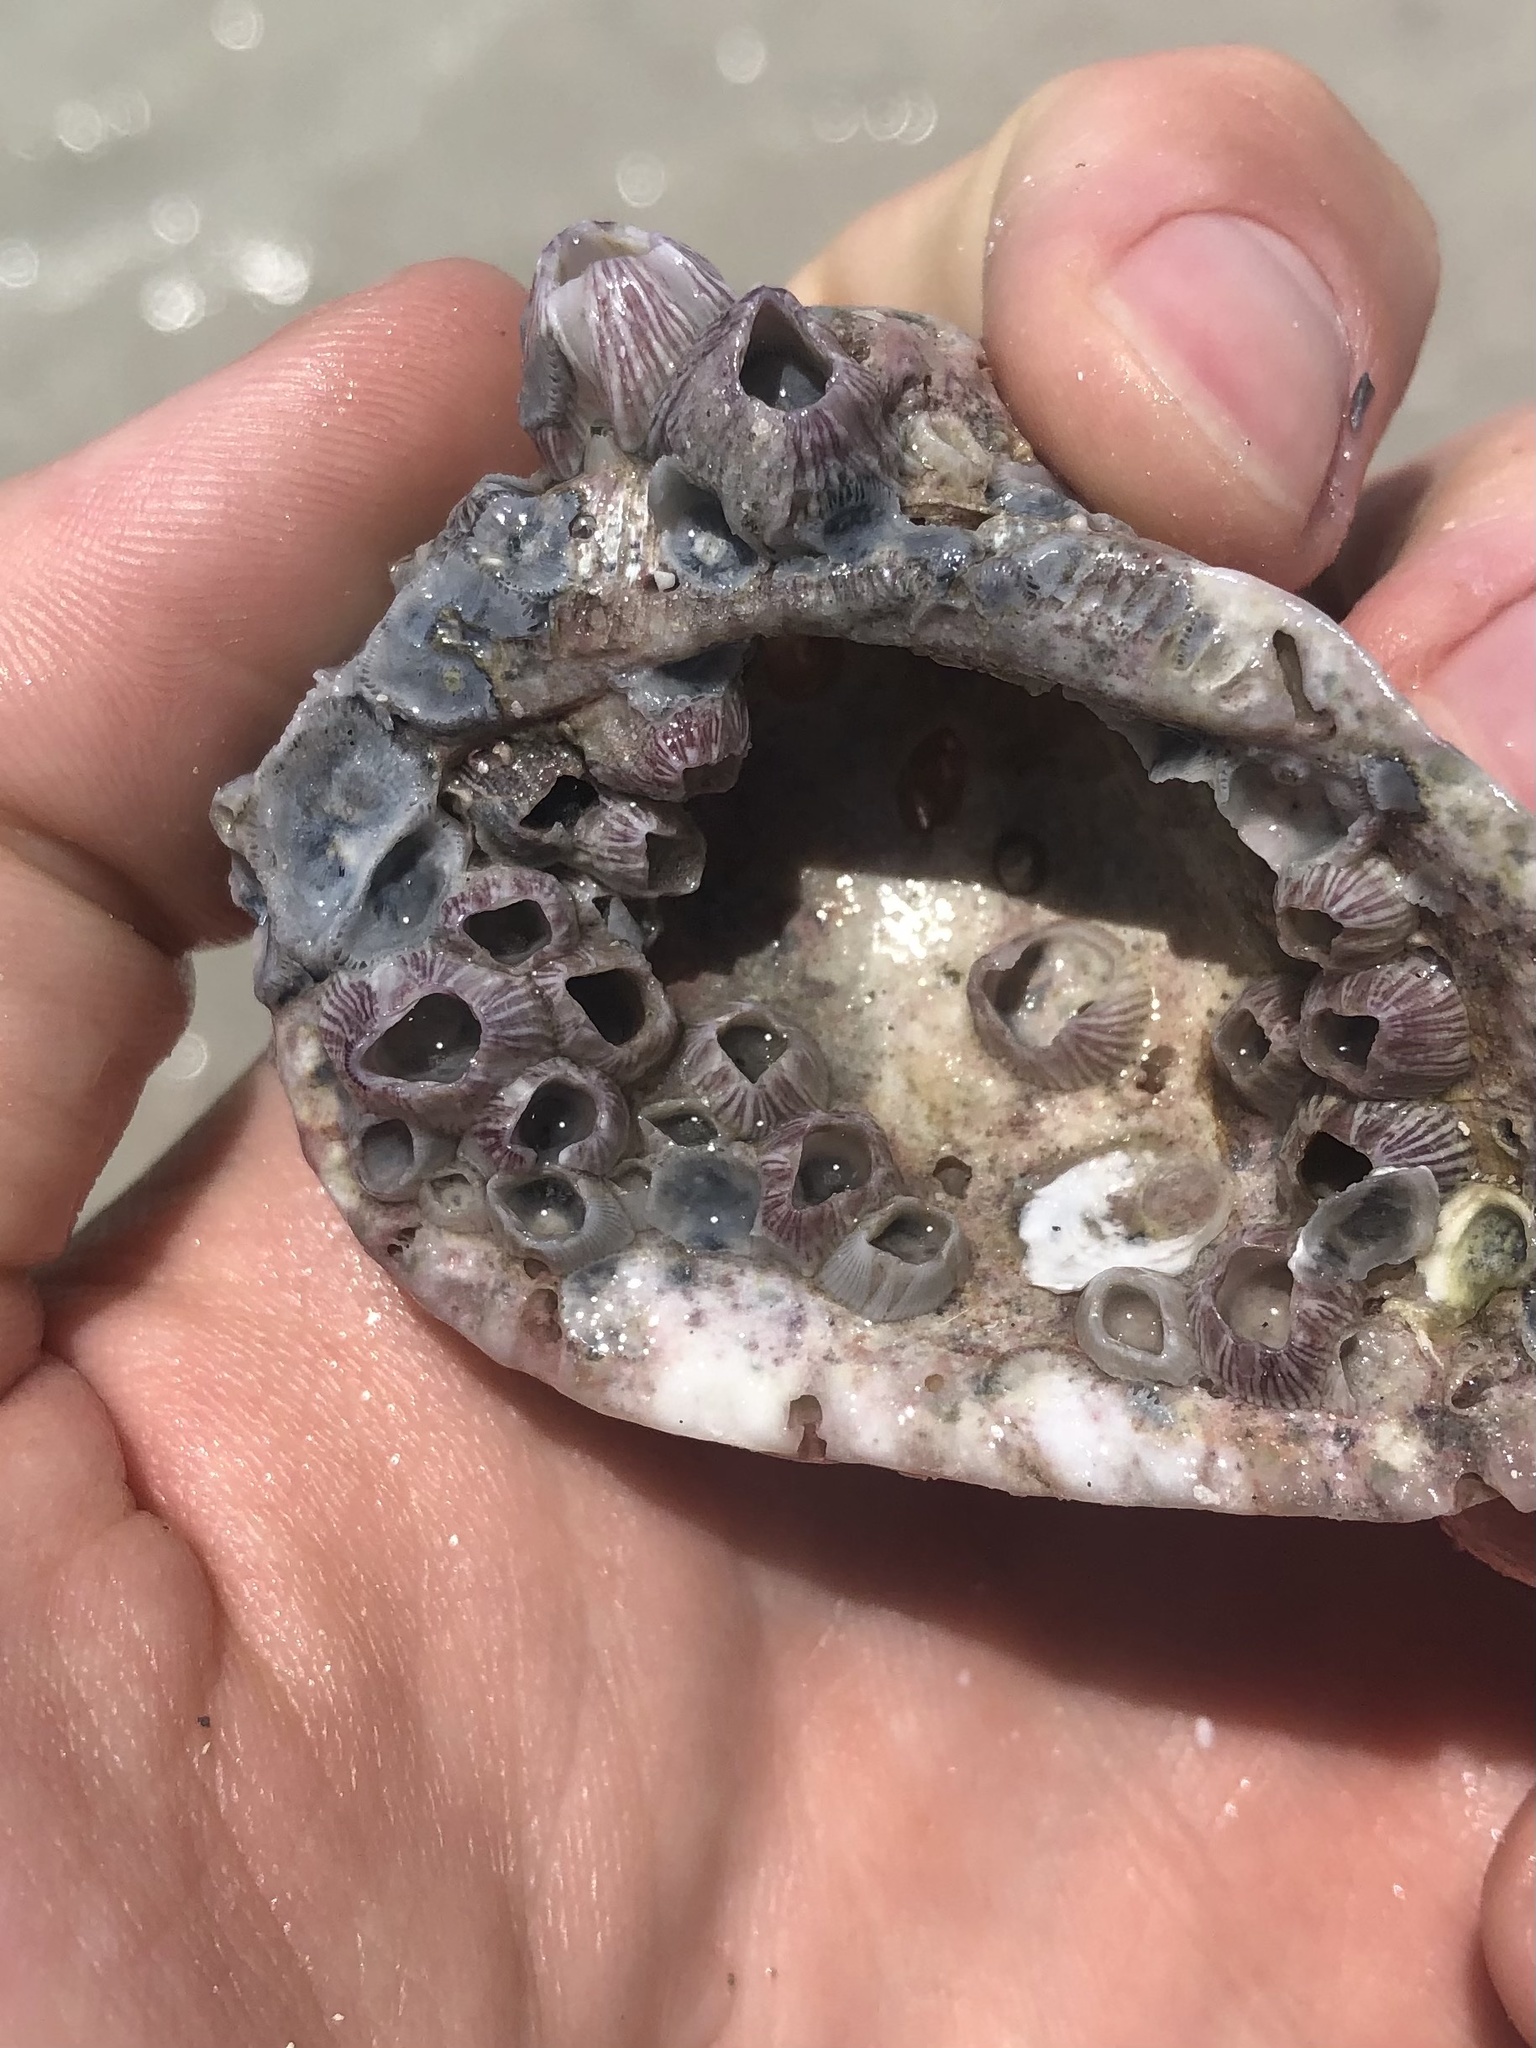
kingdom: Animalia
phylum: Arthropoda
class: Maxillopoda
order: Sessilia
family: Balanidae
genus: Balanus
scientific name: Balanus trigonus
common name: Triangle barnacle
